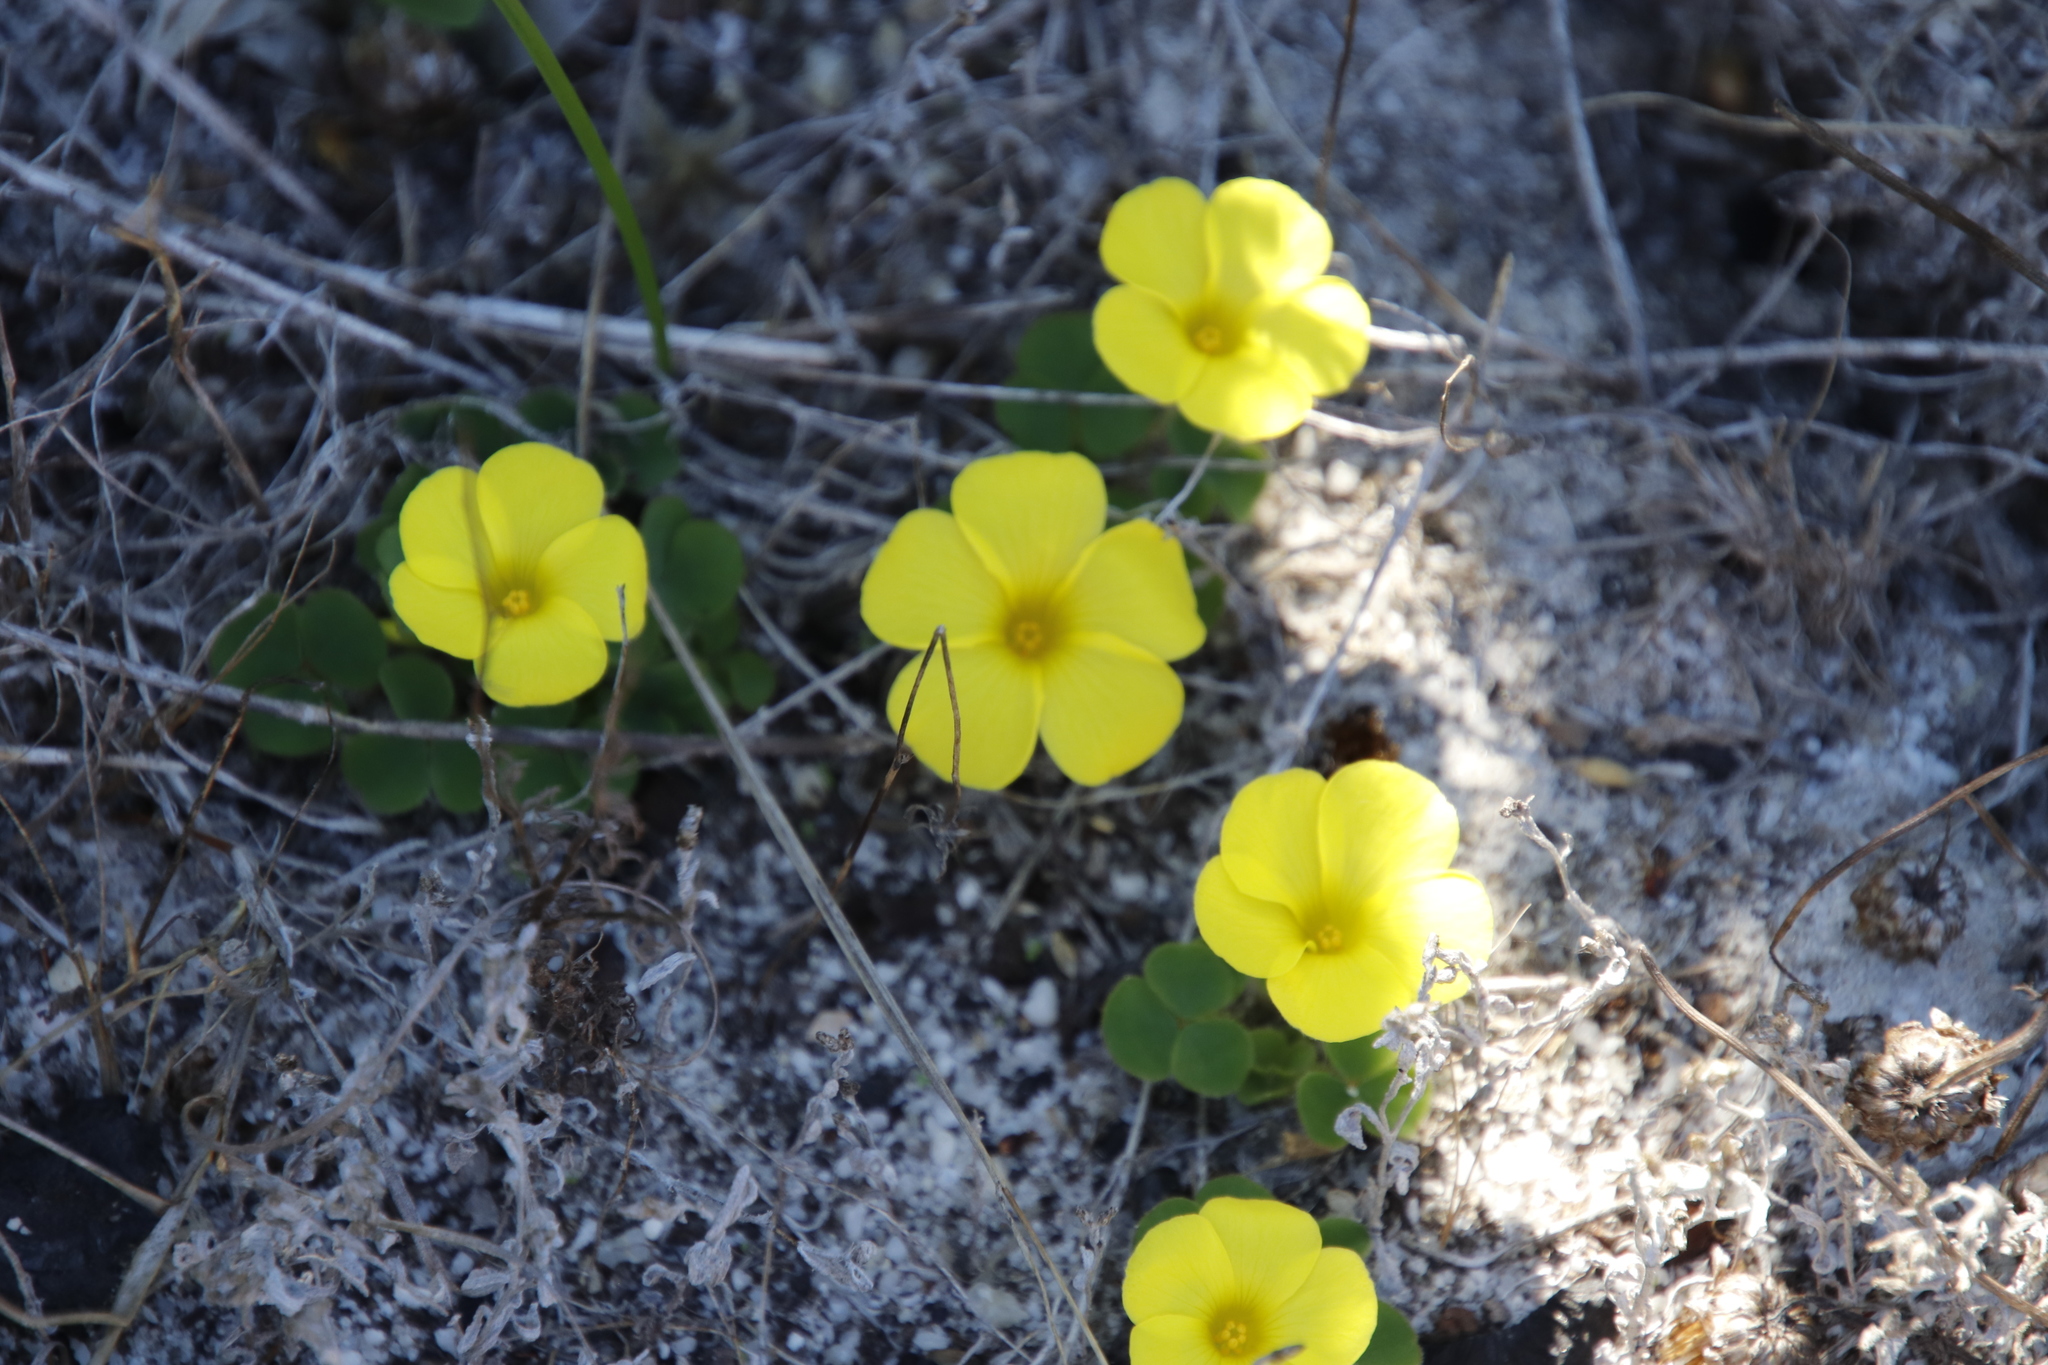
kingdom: Plantae
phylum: Tracheophyta
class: Magnoliopsida
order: Oxalidales
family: Oxalidaceae
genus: Oxalis
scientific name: Oxalis luteola
